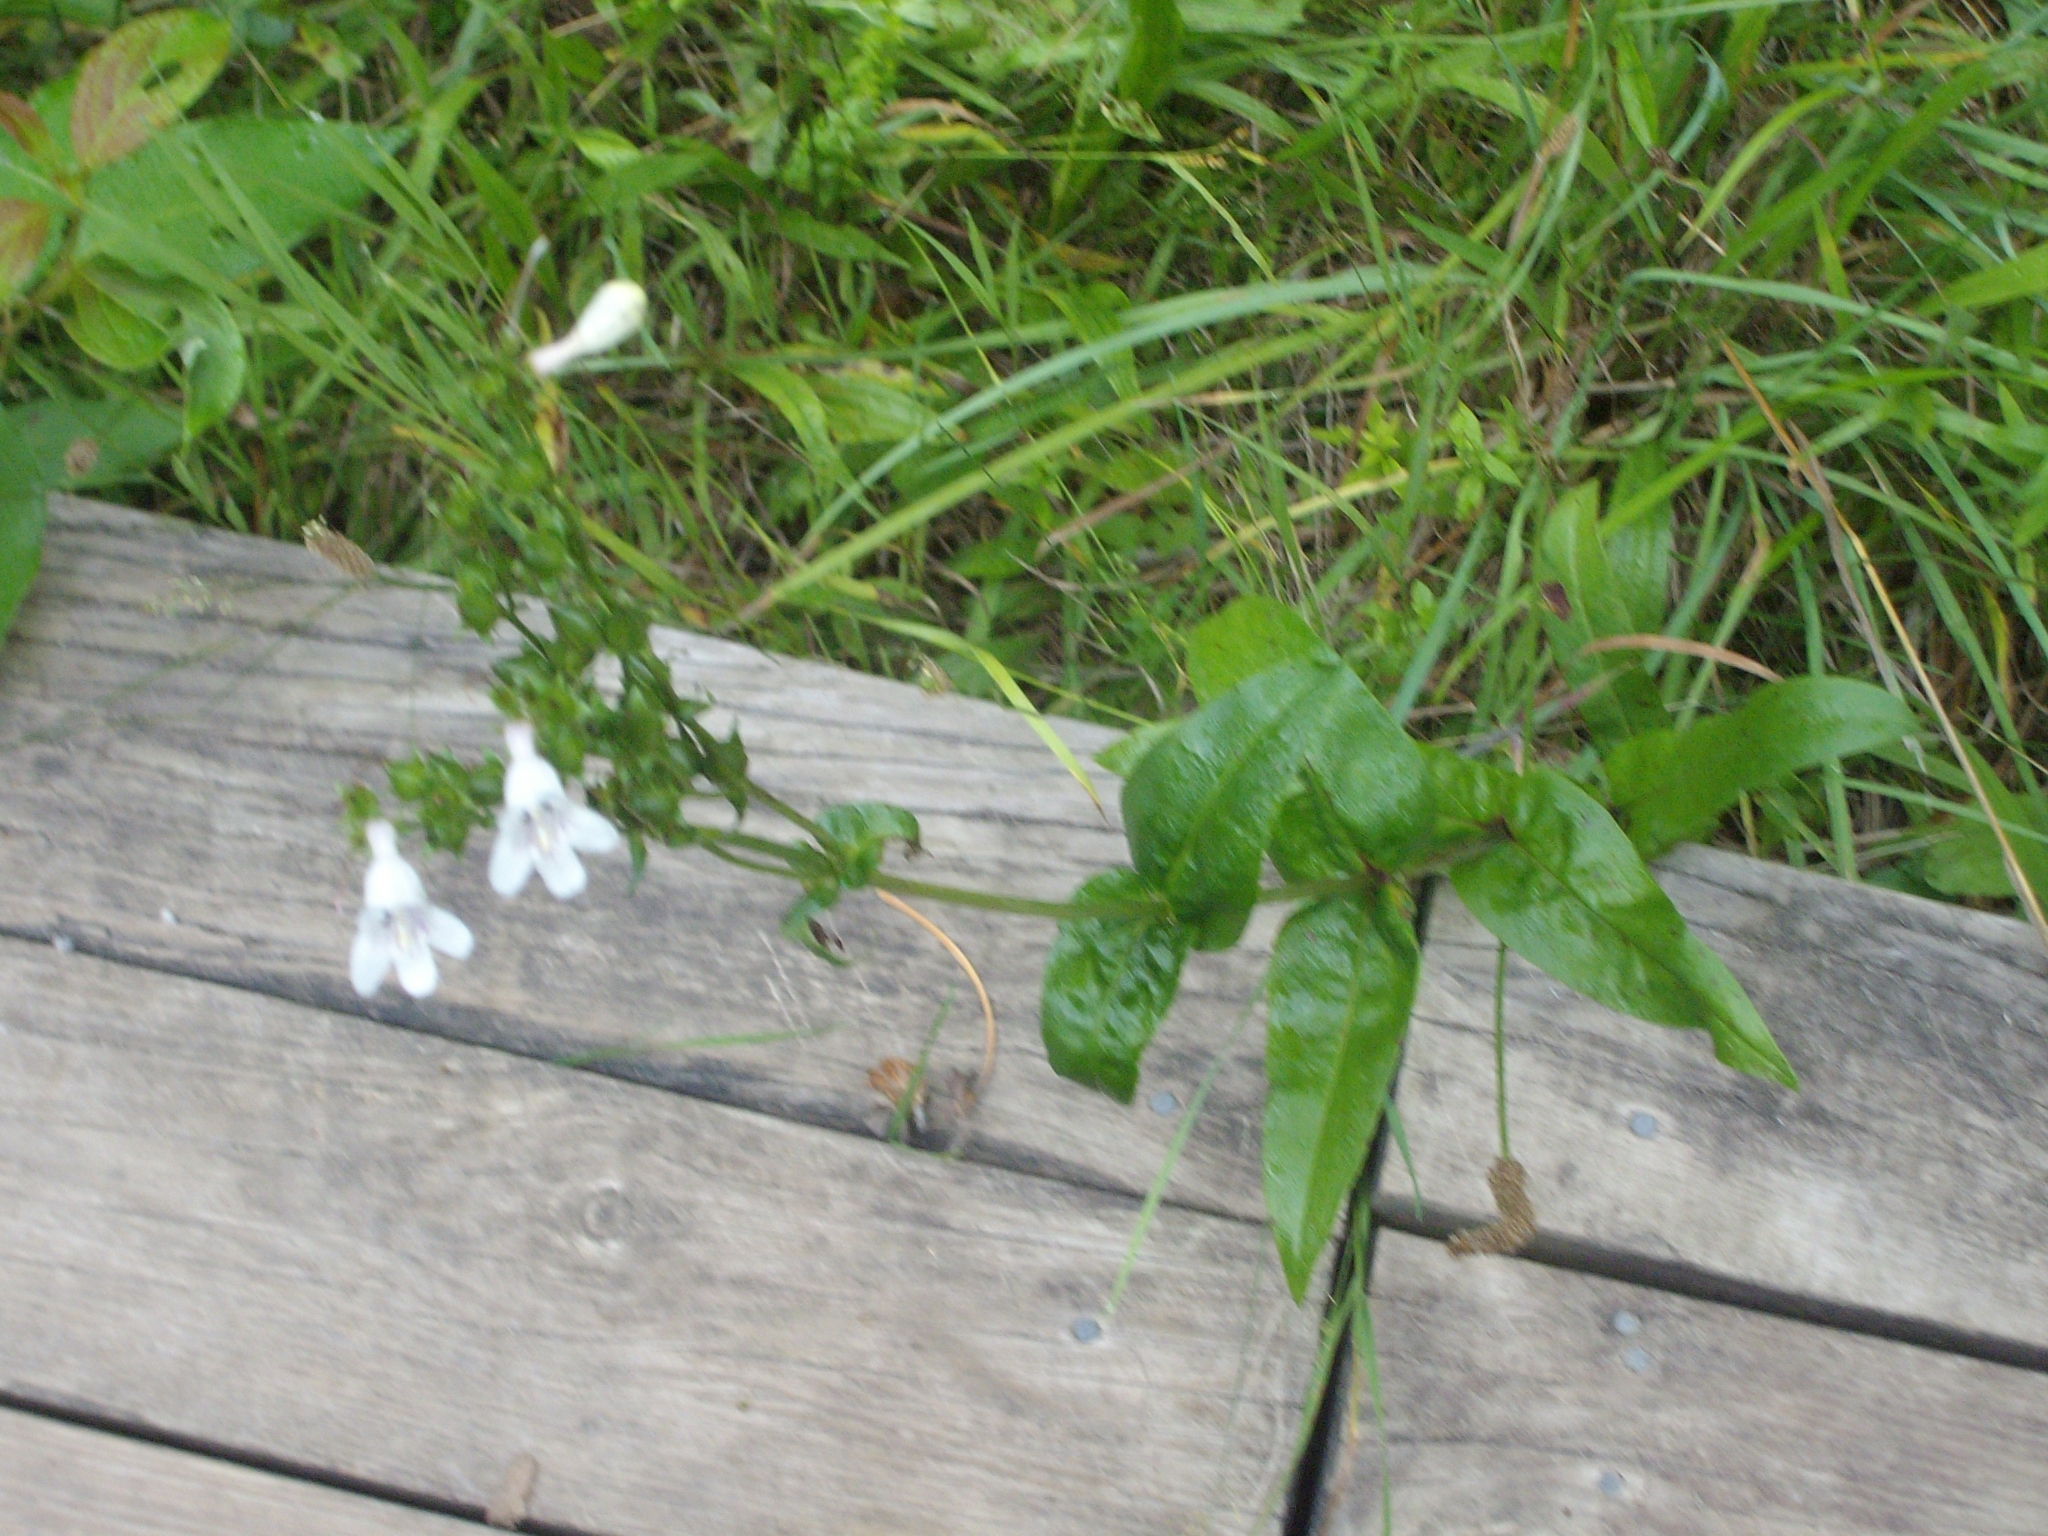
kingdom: Plantae
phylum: Tracheophyta
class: Magnoliopsida
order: Lamiales
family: Plantaginaceae
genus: Penstemon
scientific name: Penstemon digitalis
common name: Foxglove beardtongue
